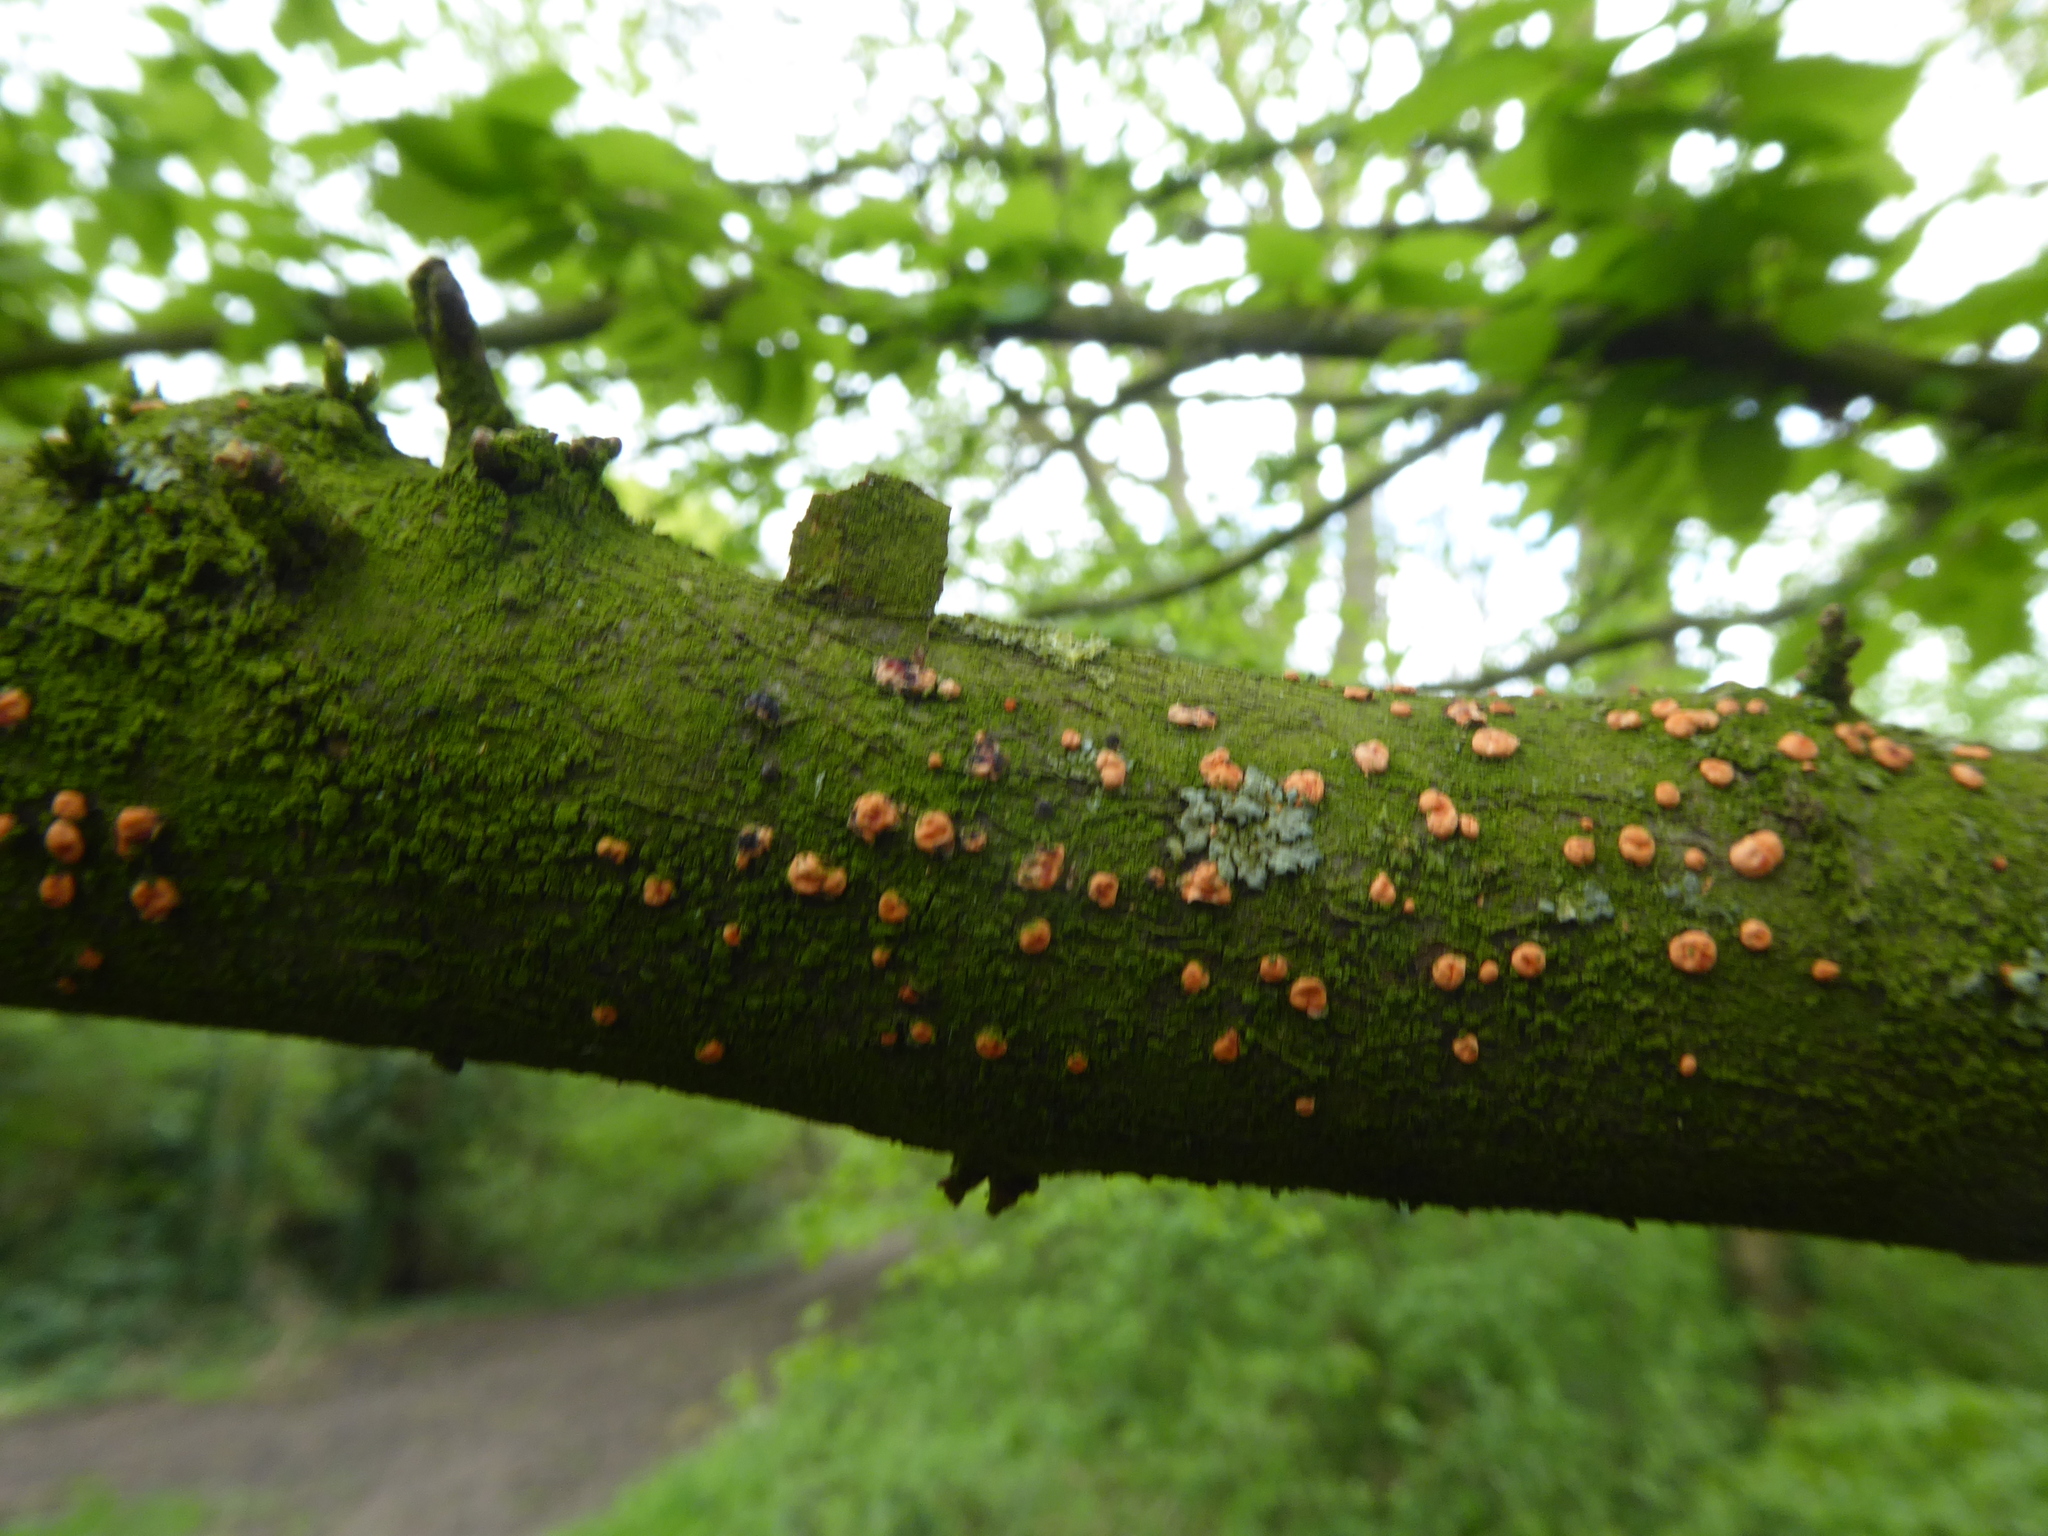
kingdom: Fungi
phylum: Ascomycota
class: Sordariomycetes
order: Hypocreales
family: Nectriaceae
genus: Nectria
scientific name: Nectria cinnabarina
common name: Coral spot
